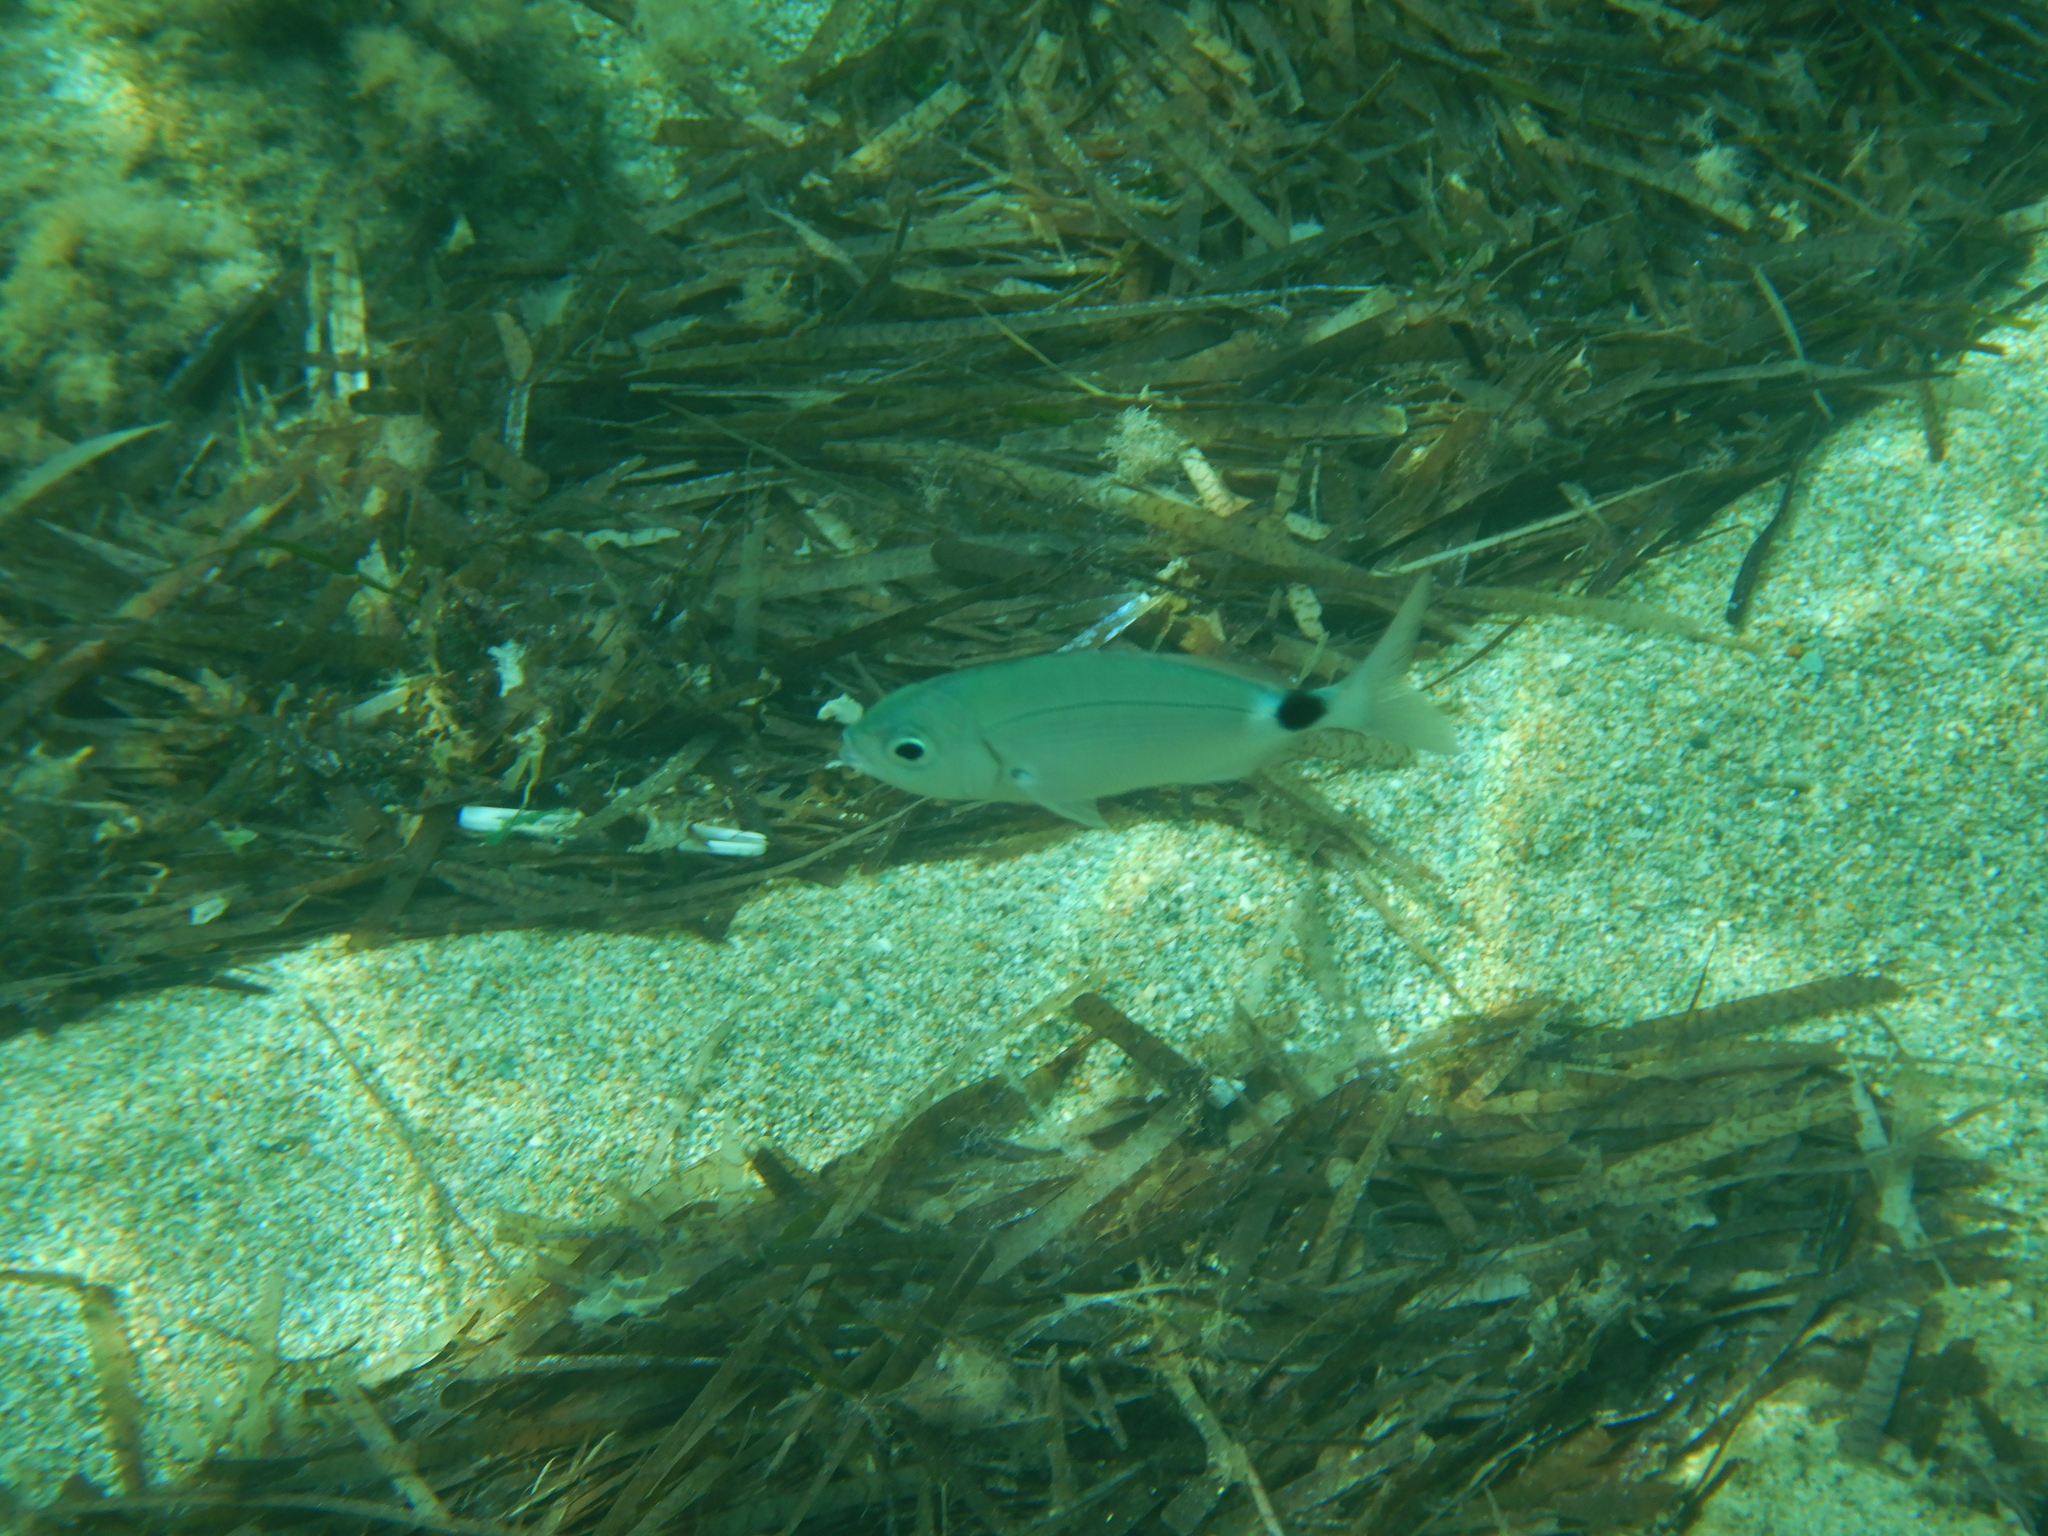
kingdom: Animalia
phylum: Chordata
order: Perciformes
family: Sparidae
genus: Oblada
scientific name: Oblada melanura
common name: Saddled seabream
